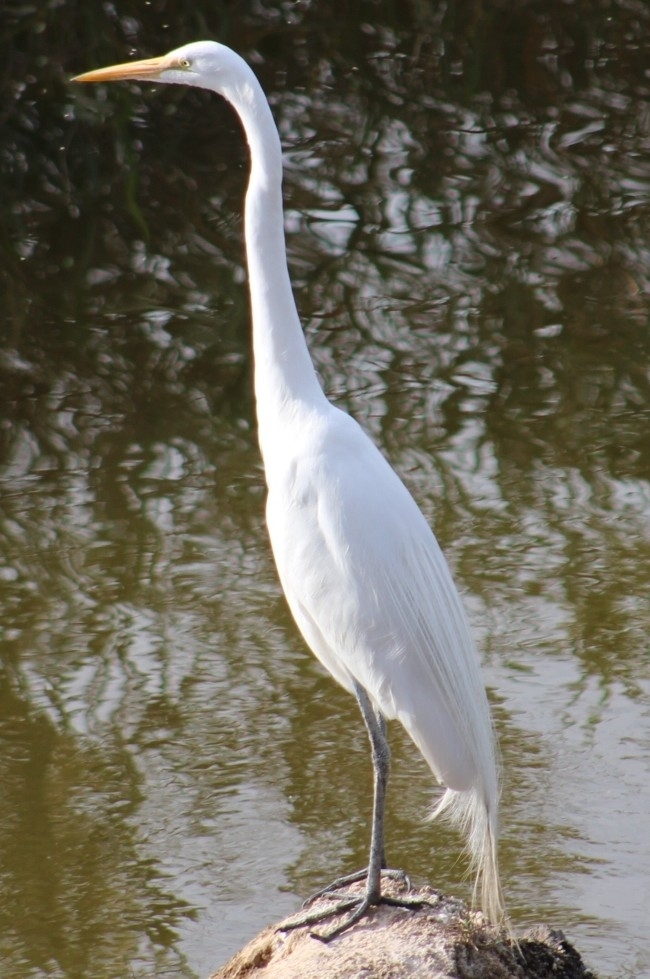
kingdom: Animalia
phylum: Chordata
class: Aves
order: Pelecaniformes
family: Ardeidae
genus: Ardea
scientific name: Ardea alba
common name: Great egret
